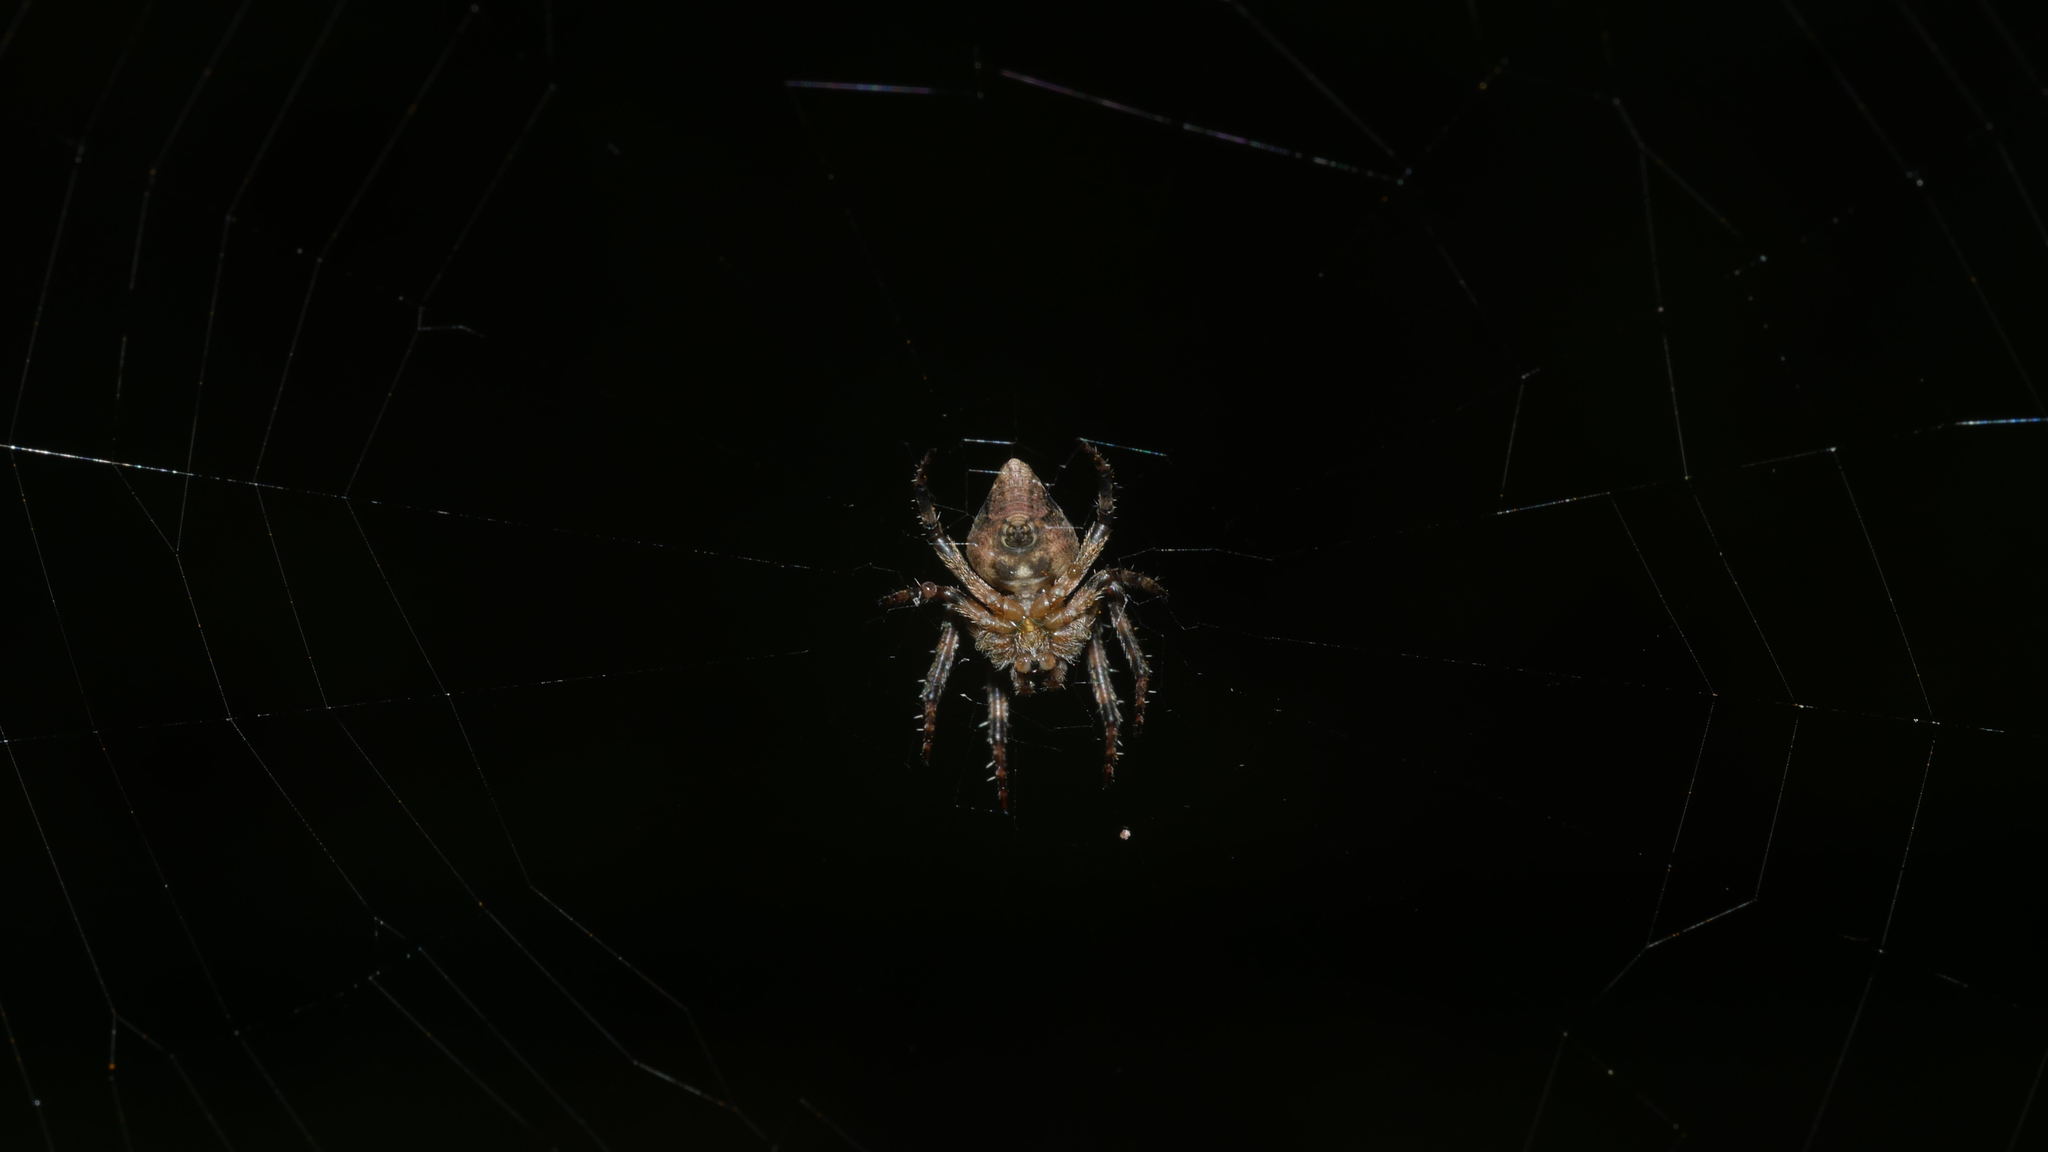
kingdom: Animalia
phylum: Arthropoda
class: Arachnida
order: Araneae
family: Araneidae
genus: Eustala
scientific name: Eustala
